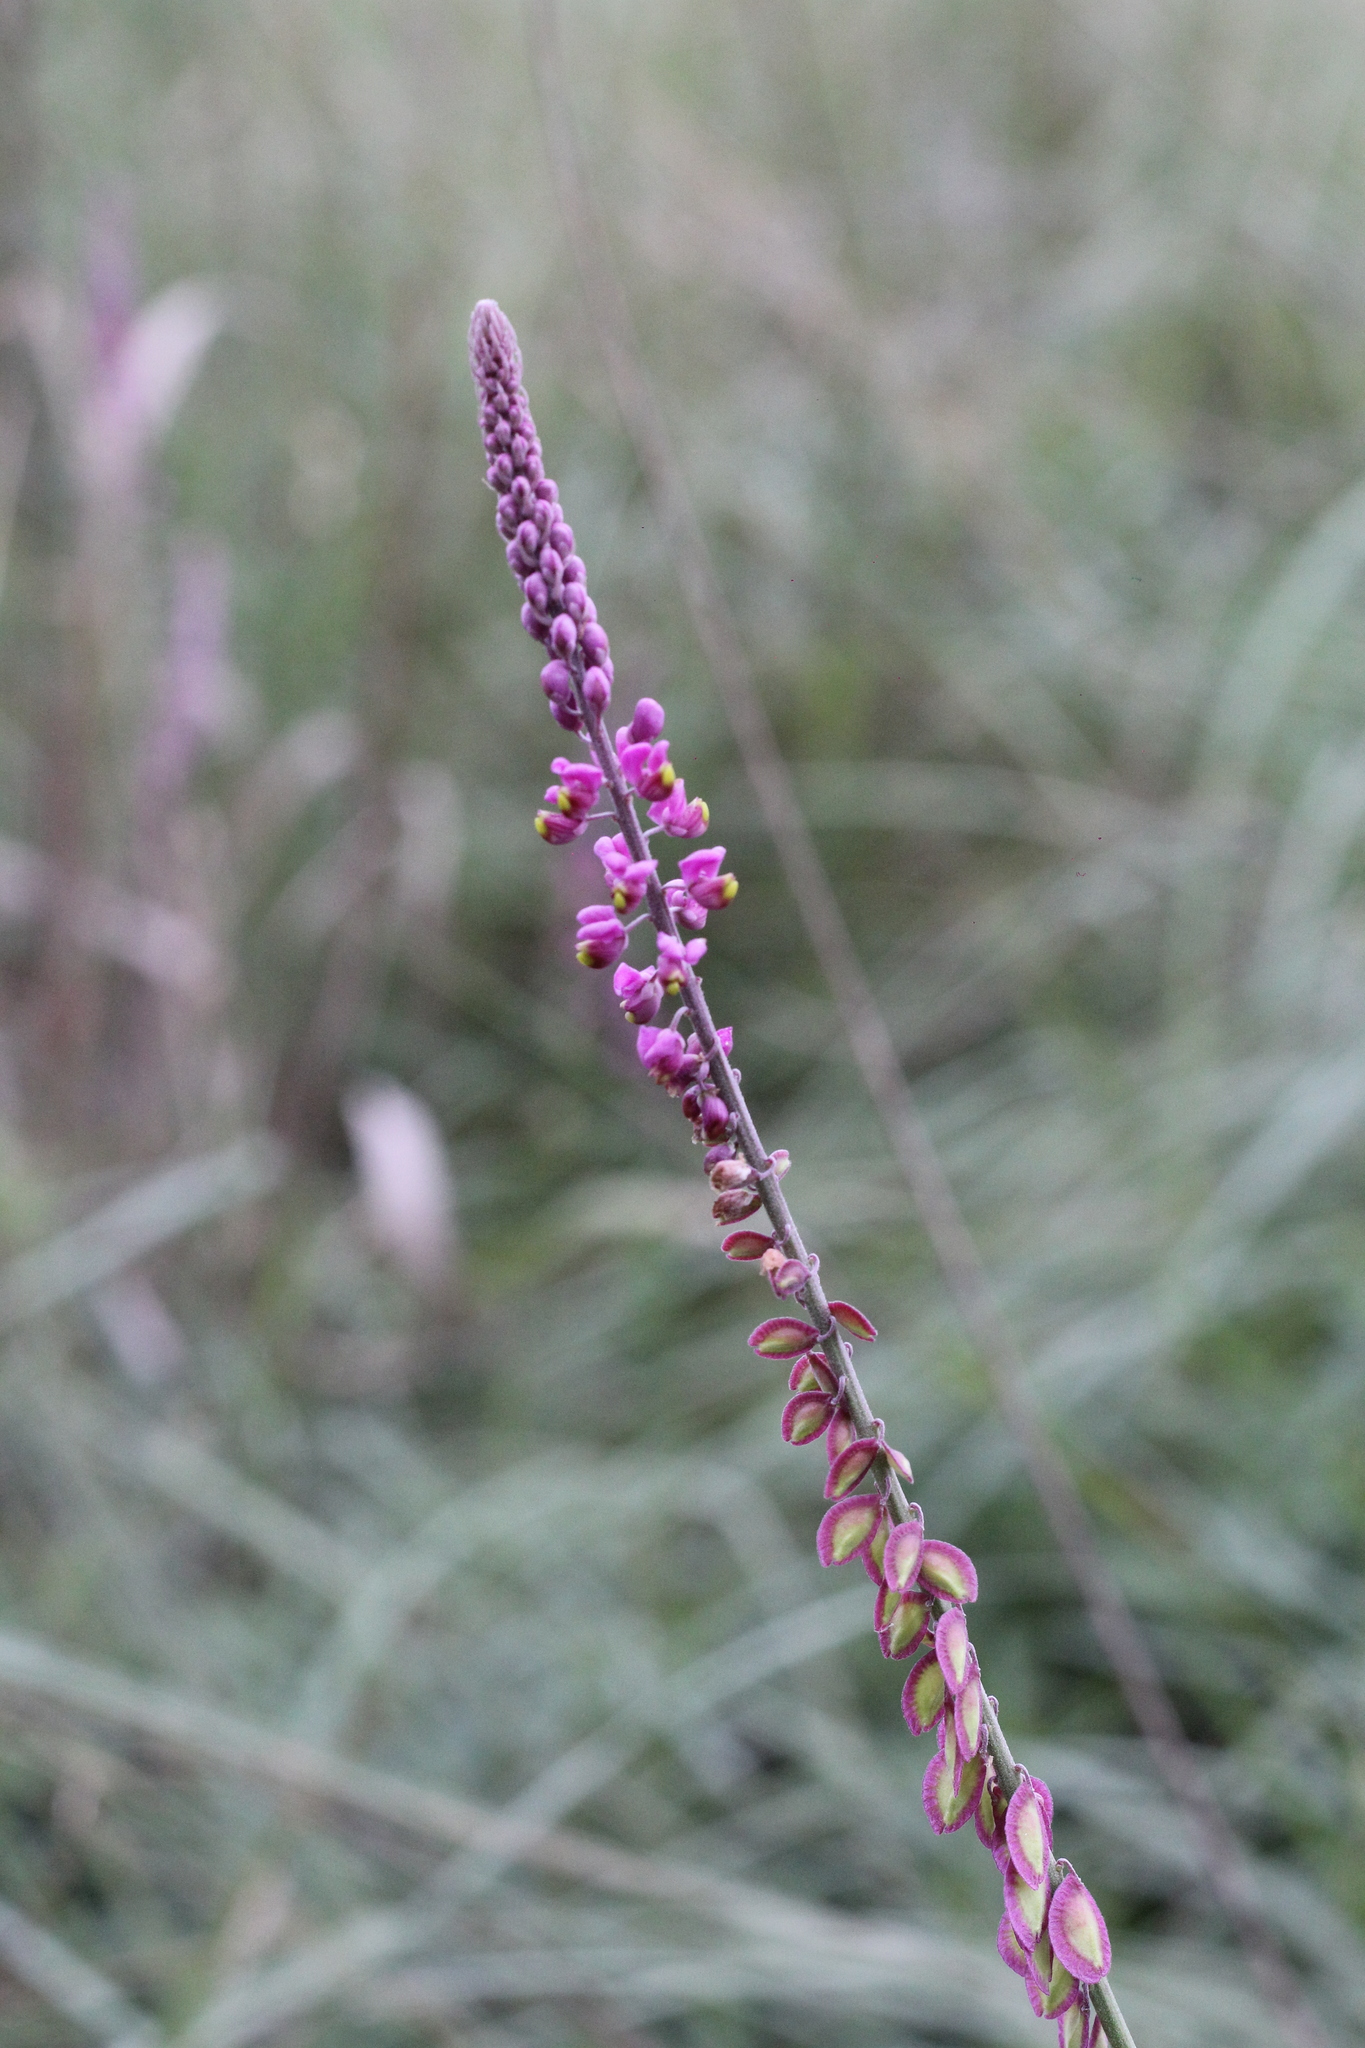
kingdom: Plantae
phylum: Tracheophyta
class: Magnoliopsida
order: Fabales
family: Polygalaceae
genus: Monnina
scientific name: Monnina tristaniana
